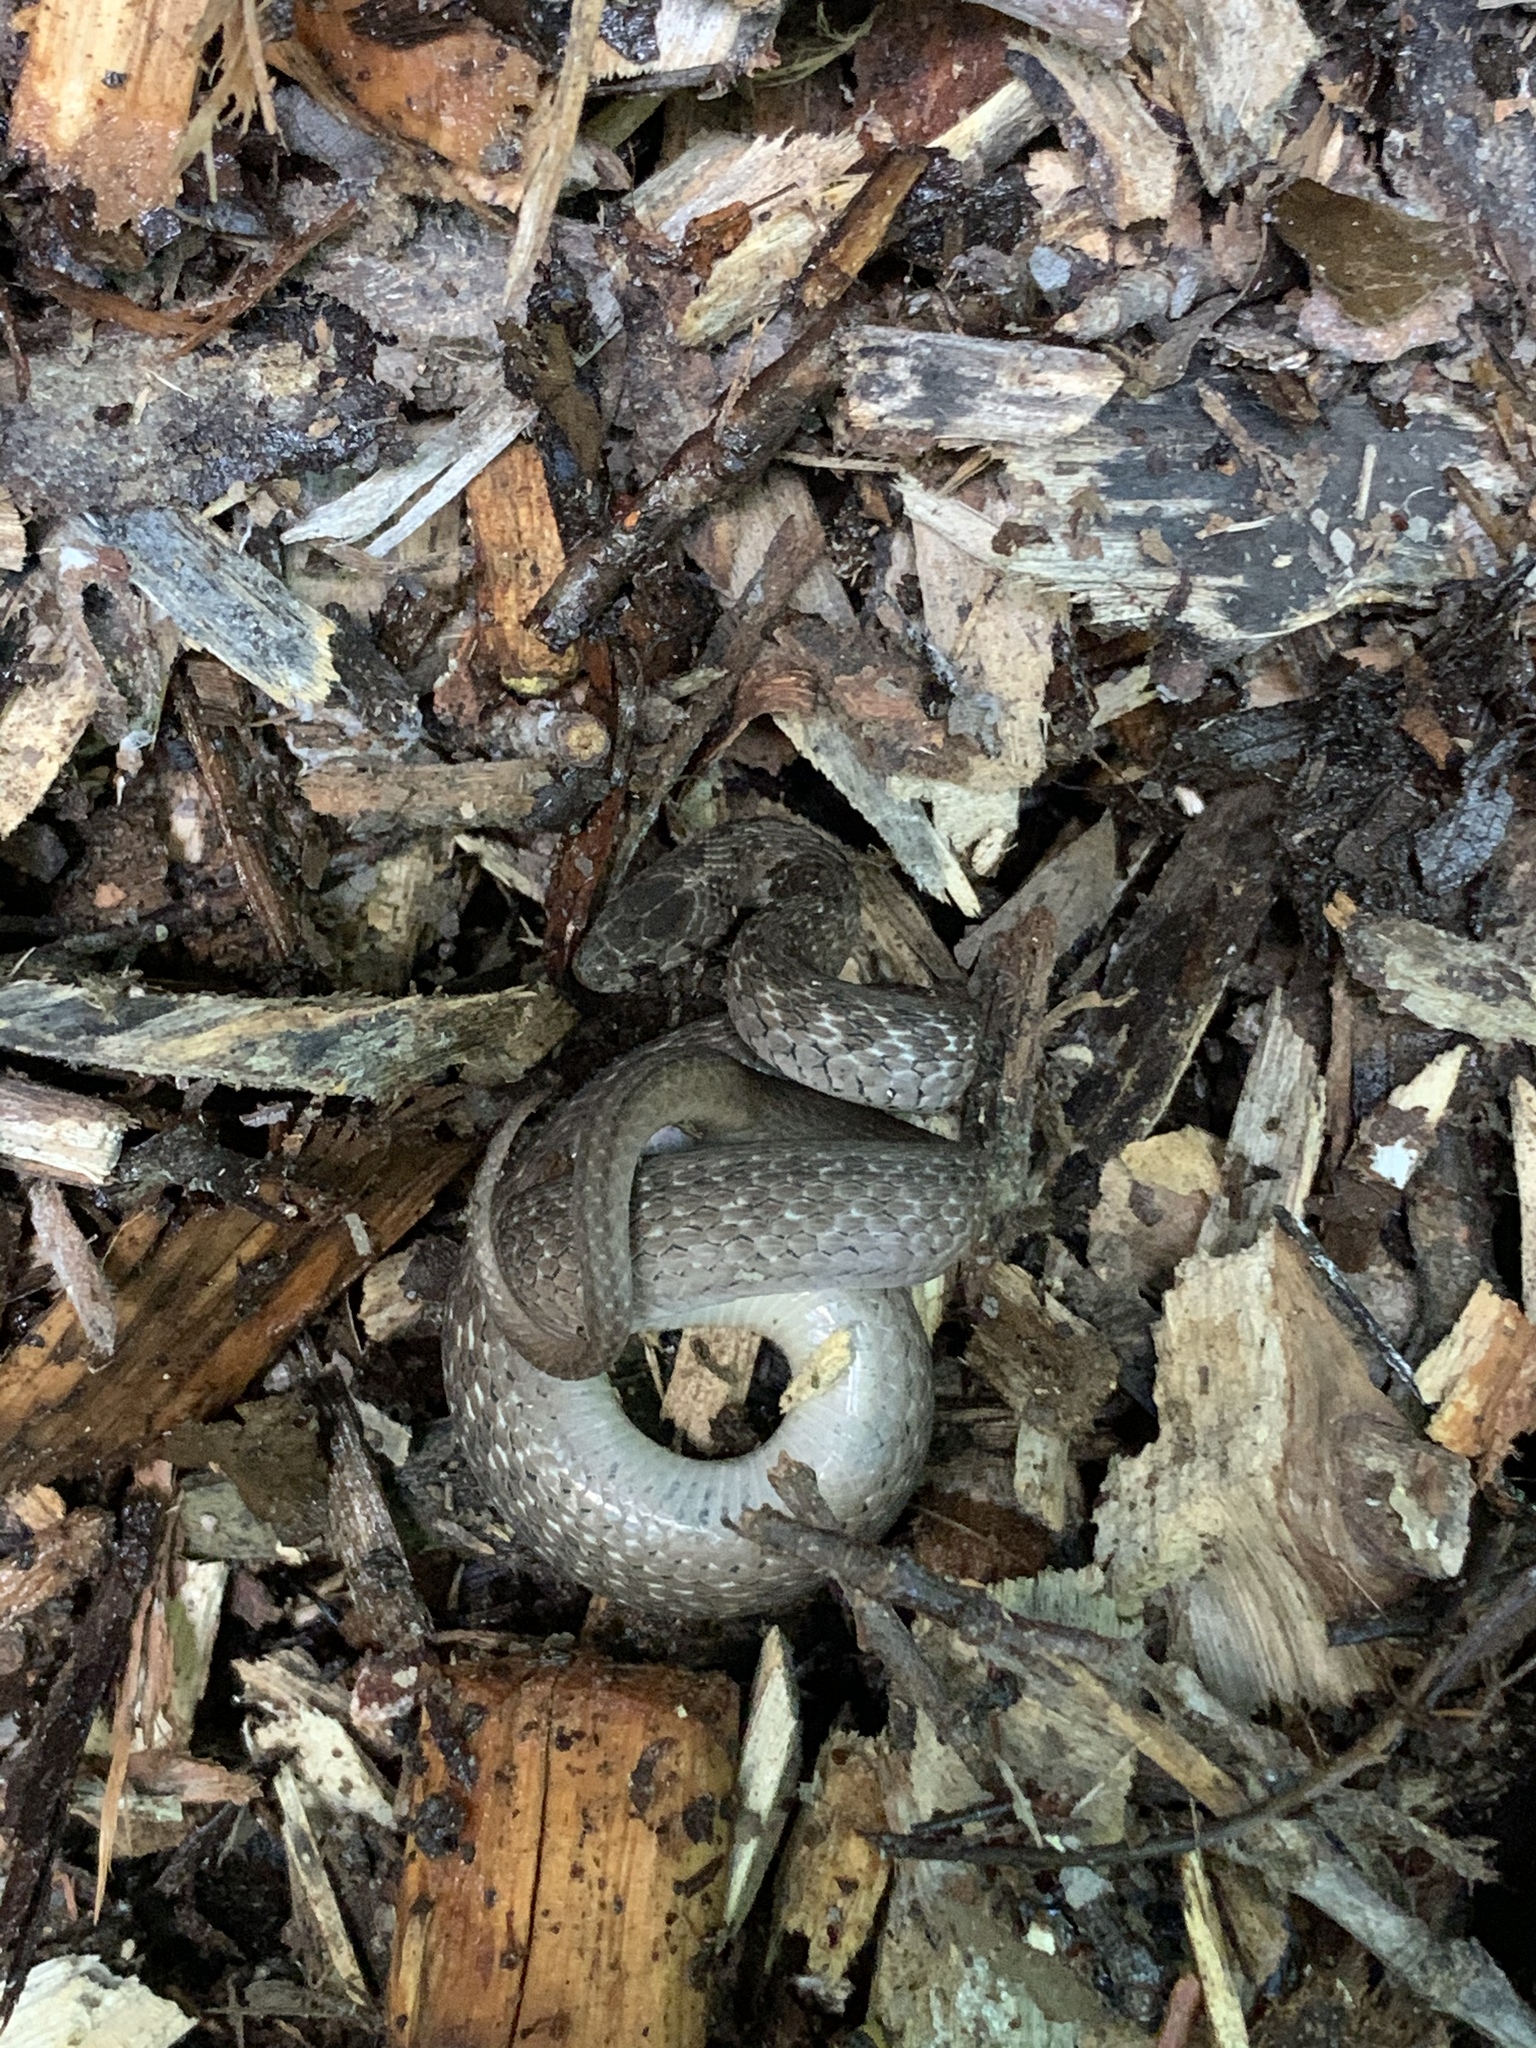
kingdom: Animalia
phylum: Chordata
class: Squamata
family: Colubridae
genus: Storeria
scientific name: Storeria dekayi
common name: (dekay’s) brown snake
